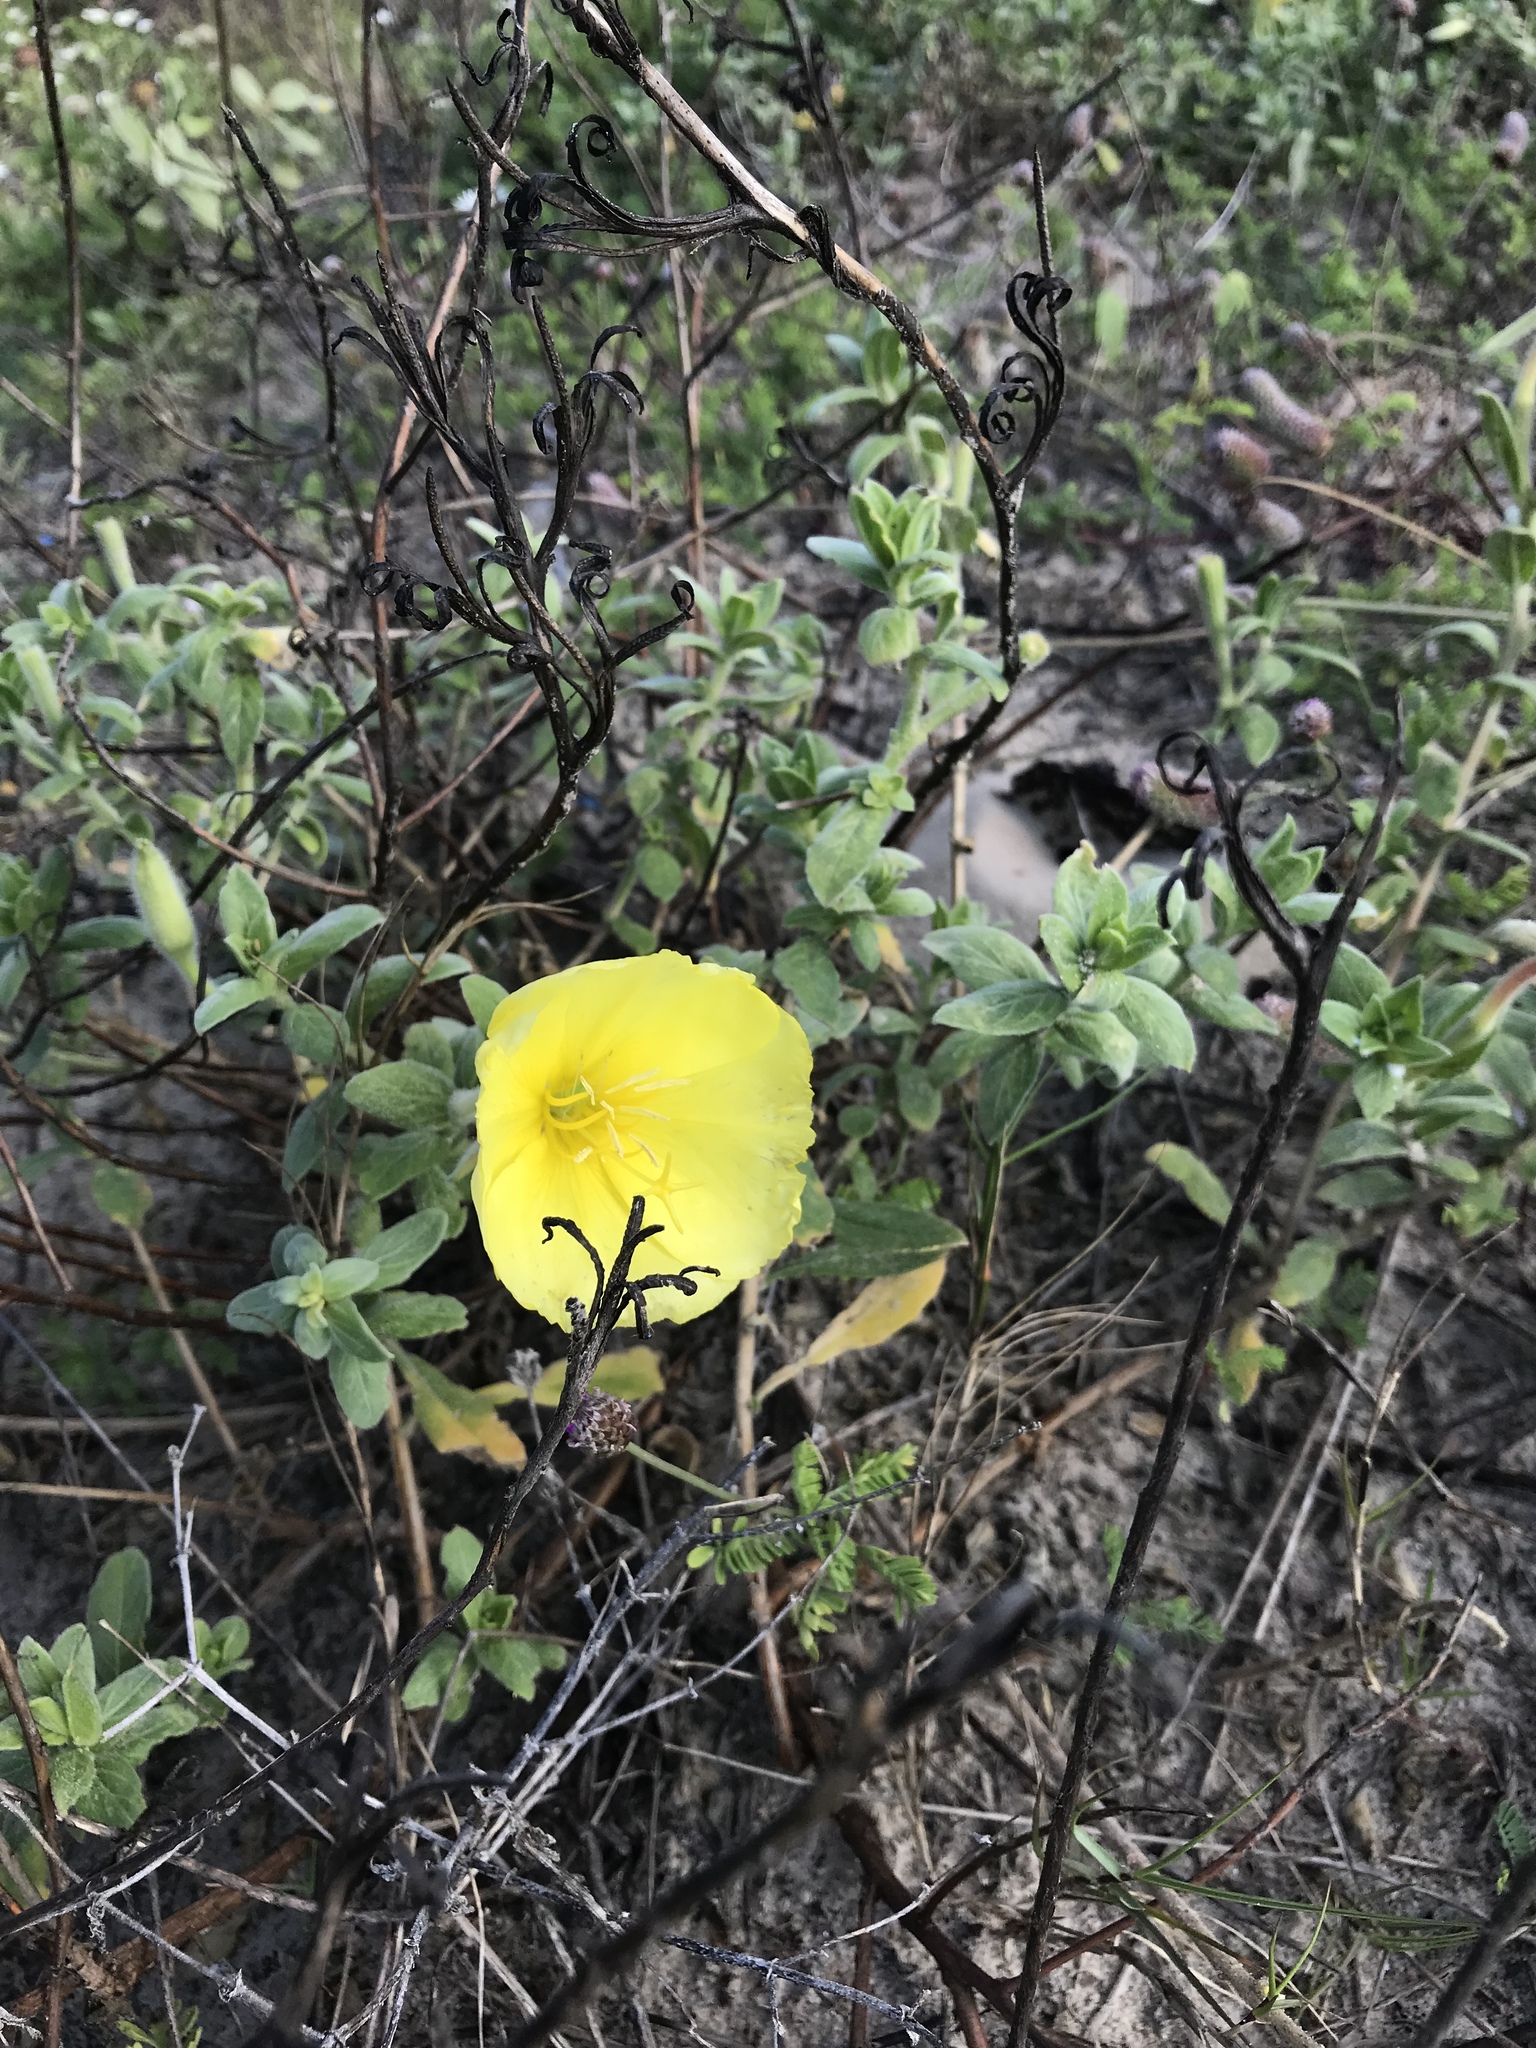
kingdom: Plantae
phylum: Tracheophyta
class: Magnoliopsida
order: Myrtales
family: Onagraceae
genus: Oenothera
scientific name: Oenothera drummondii
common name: Beach evening-primrose
